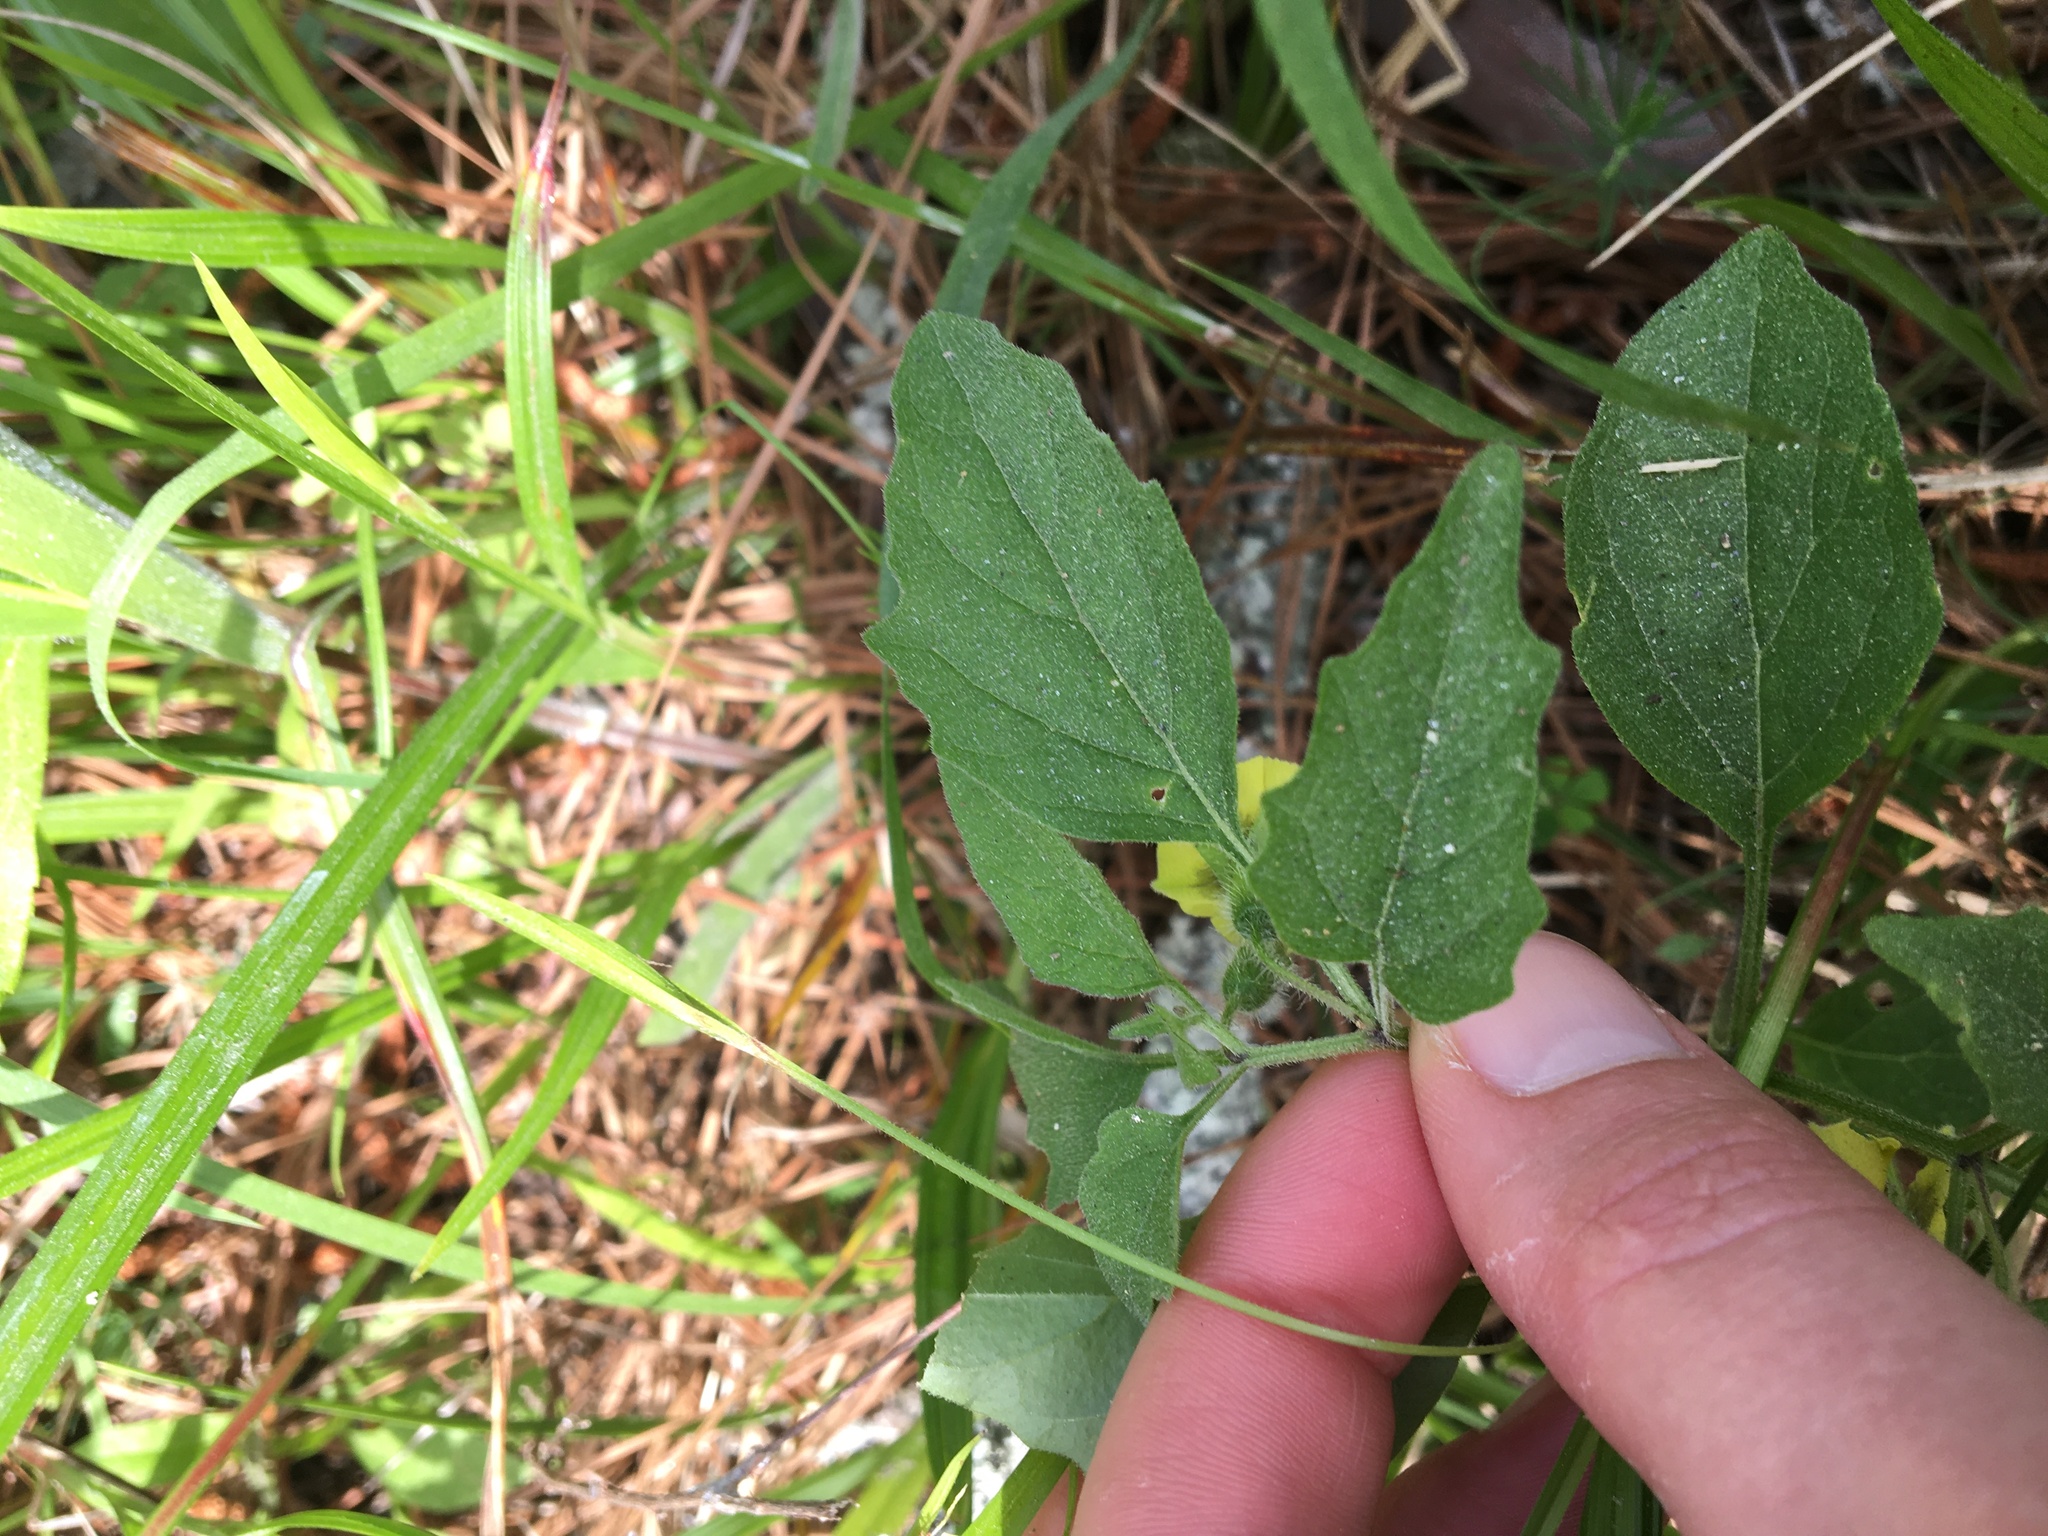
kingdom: Plantae
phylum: Tracheophyta
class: Magnoliopsida
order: Solanales
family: Solanaceae
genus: Physalis
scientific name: Physalis virginiana
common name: Virginia ground-cherry
